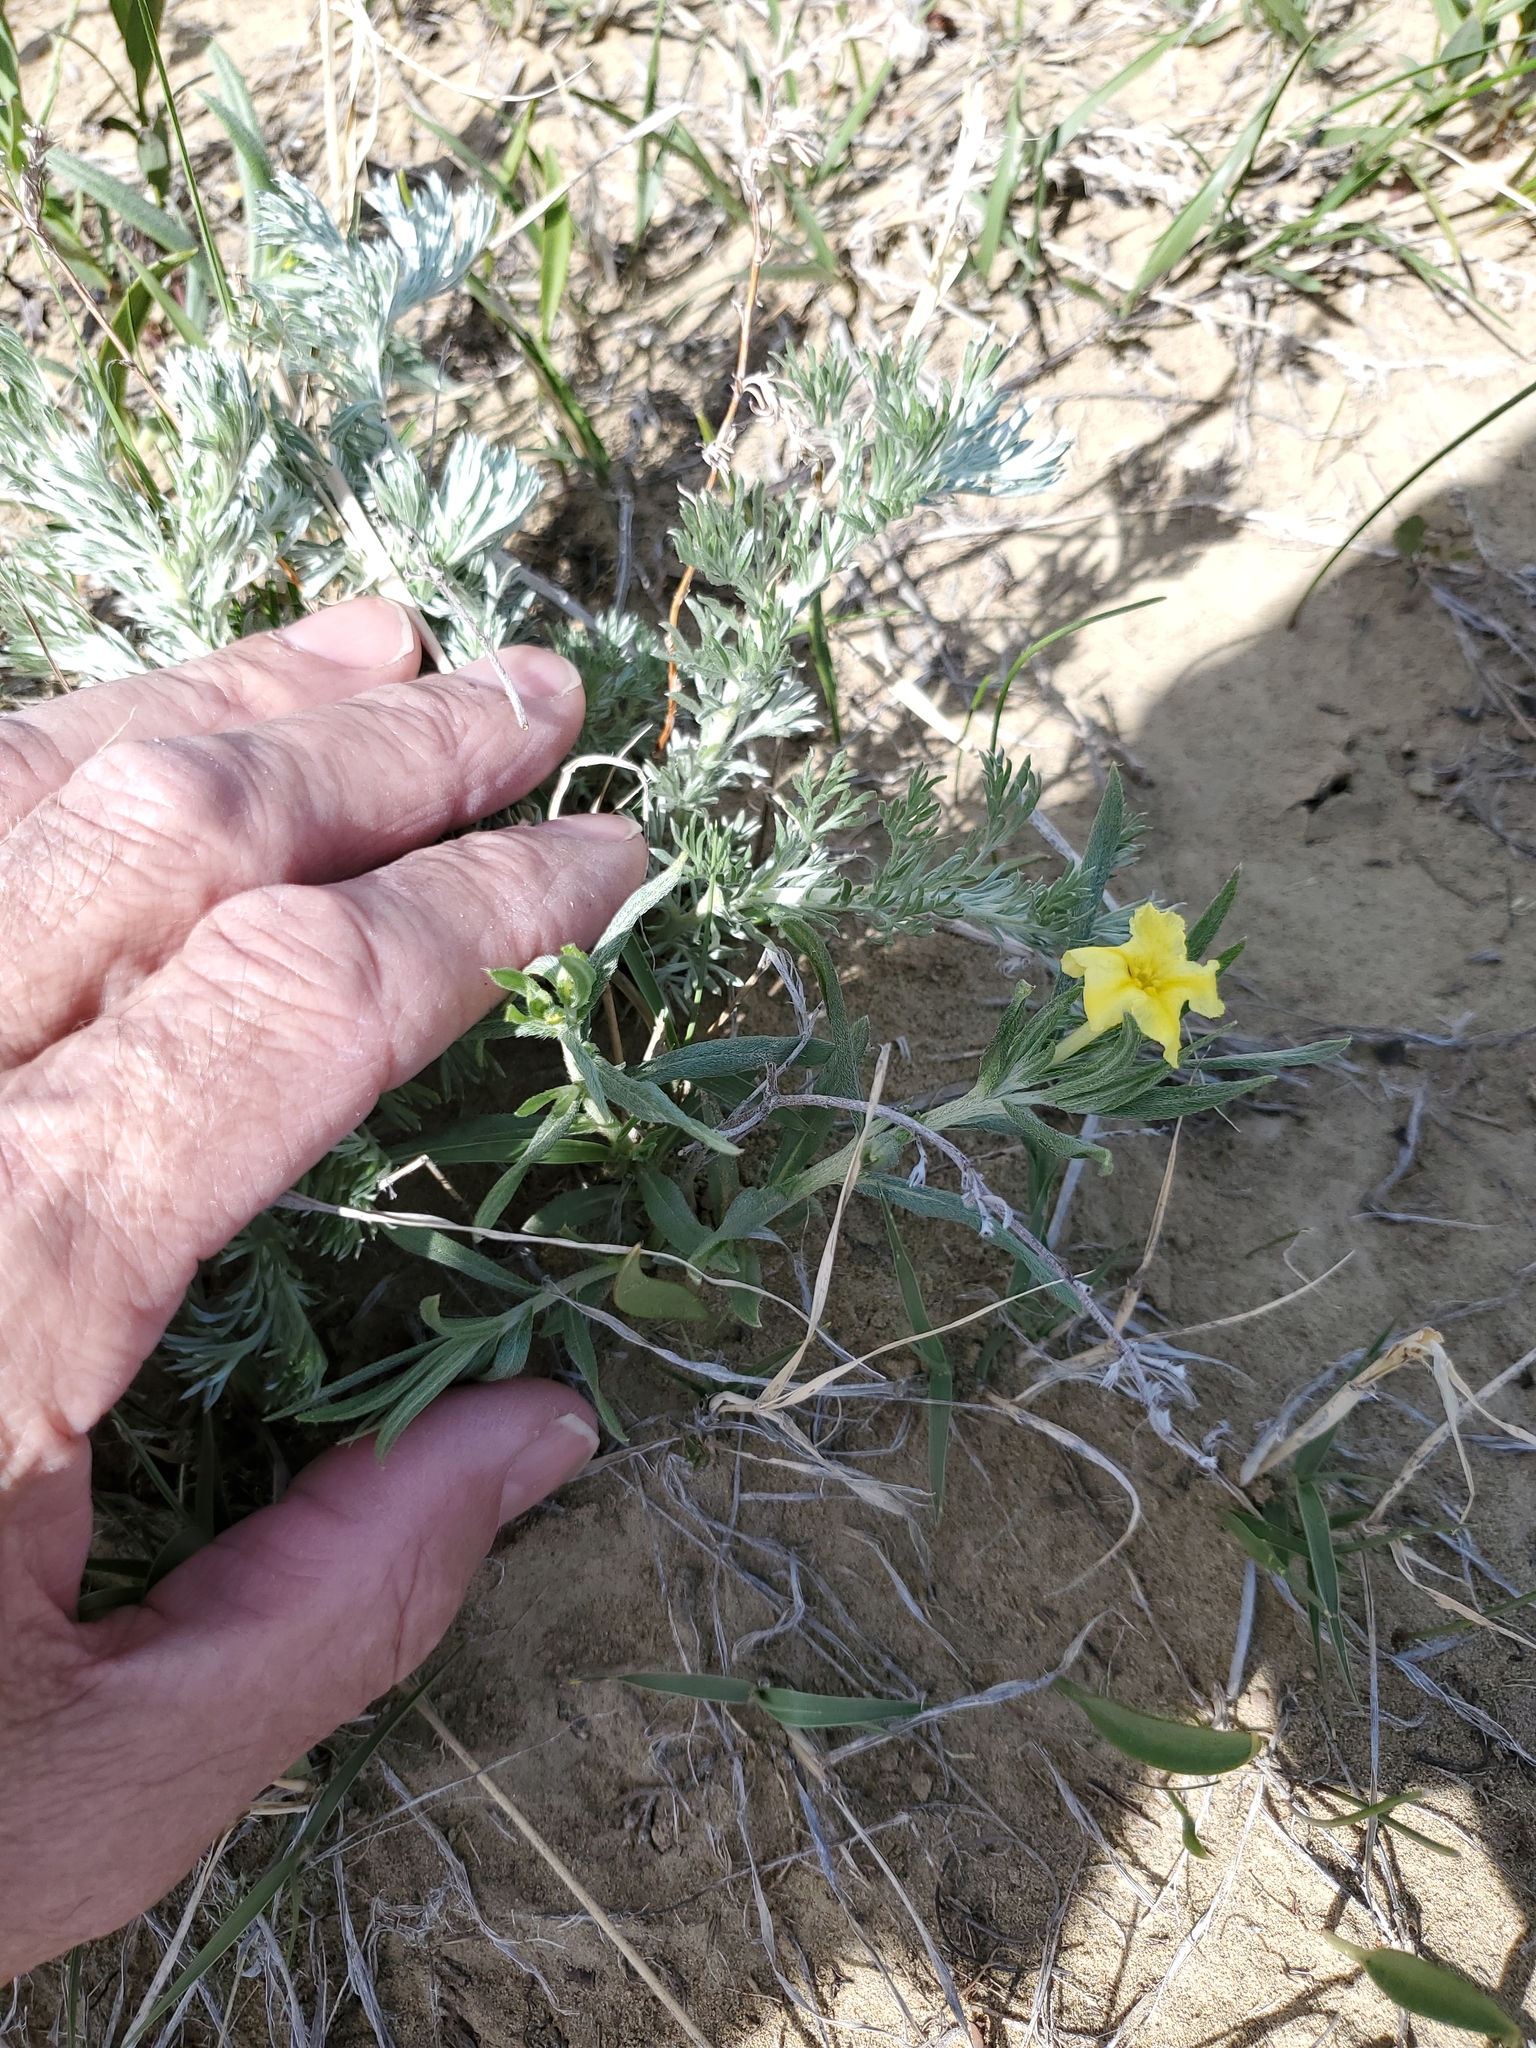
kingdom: Plantae
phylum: Tracheophyta
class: Magnoliopsida
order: Boraginales
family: Boraginaceae
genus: Lithospermum
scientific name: Lithospermum incisum
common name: Fringed gromwell
